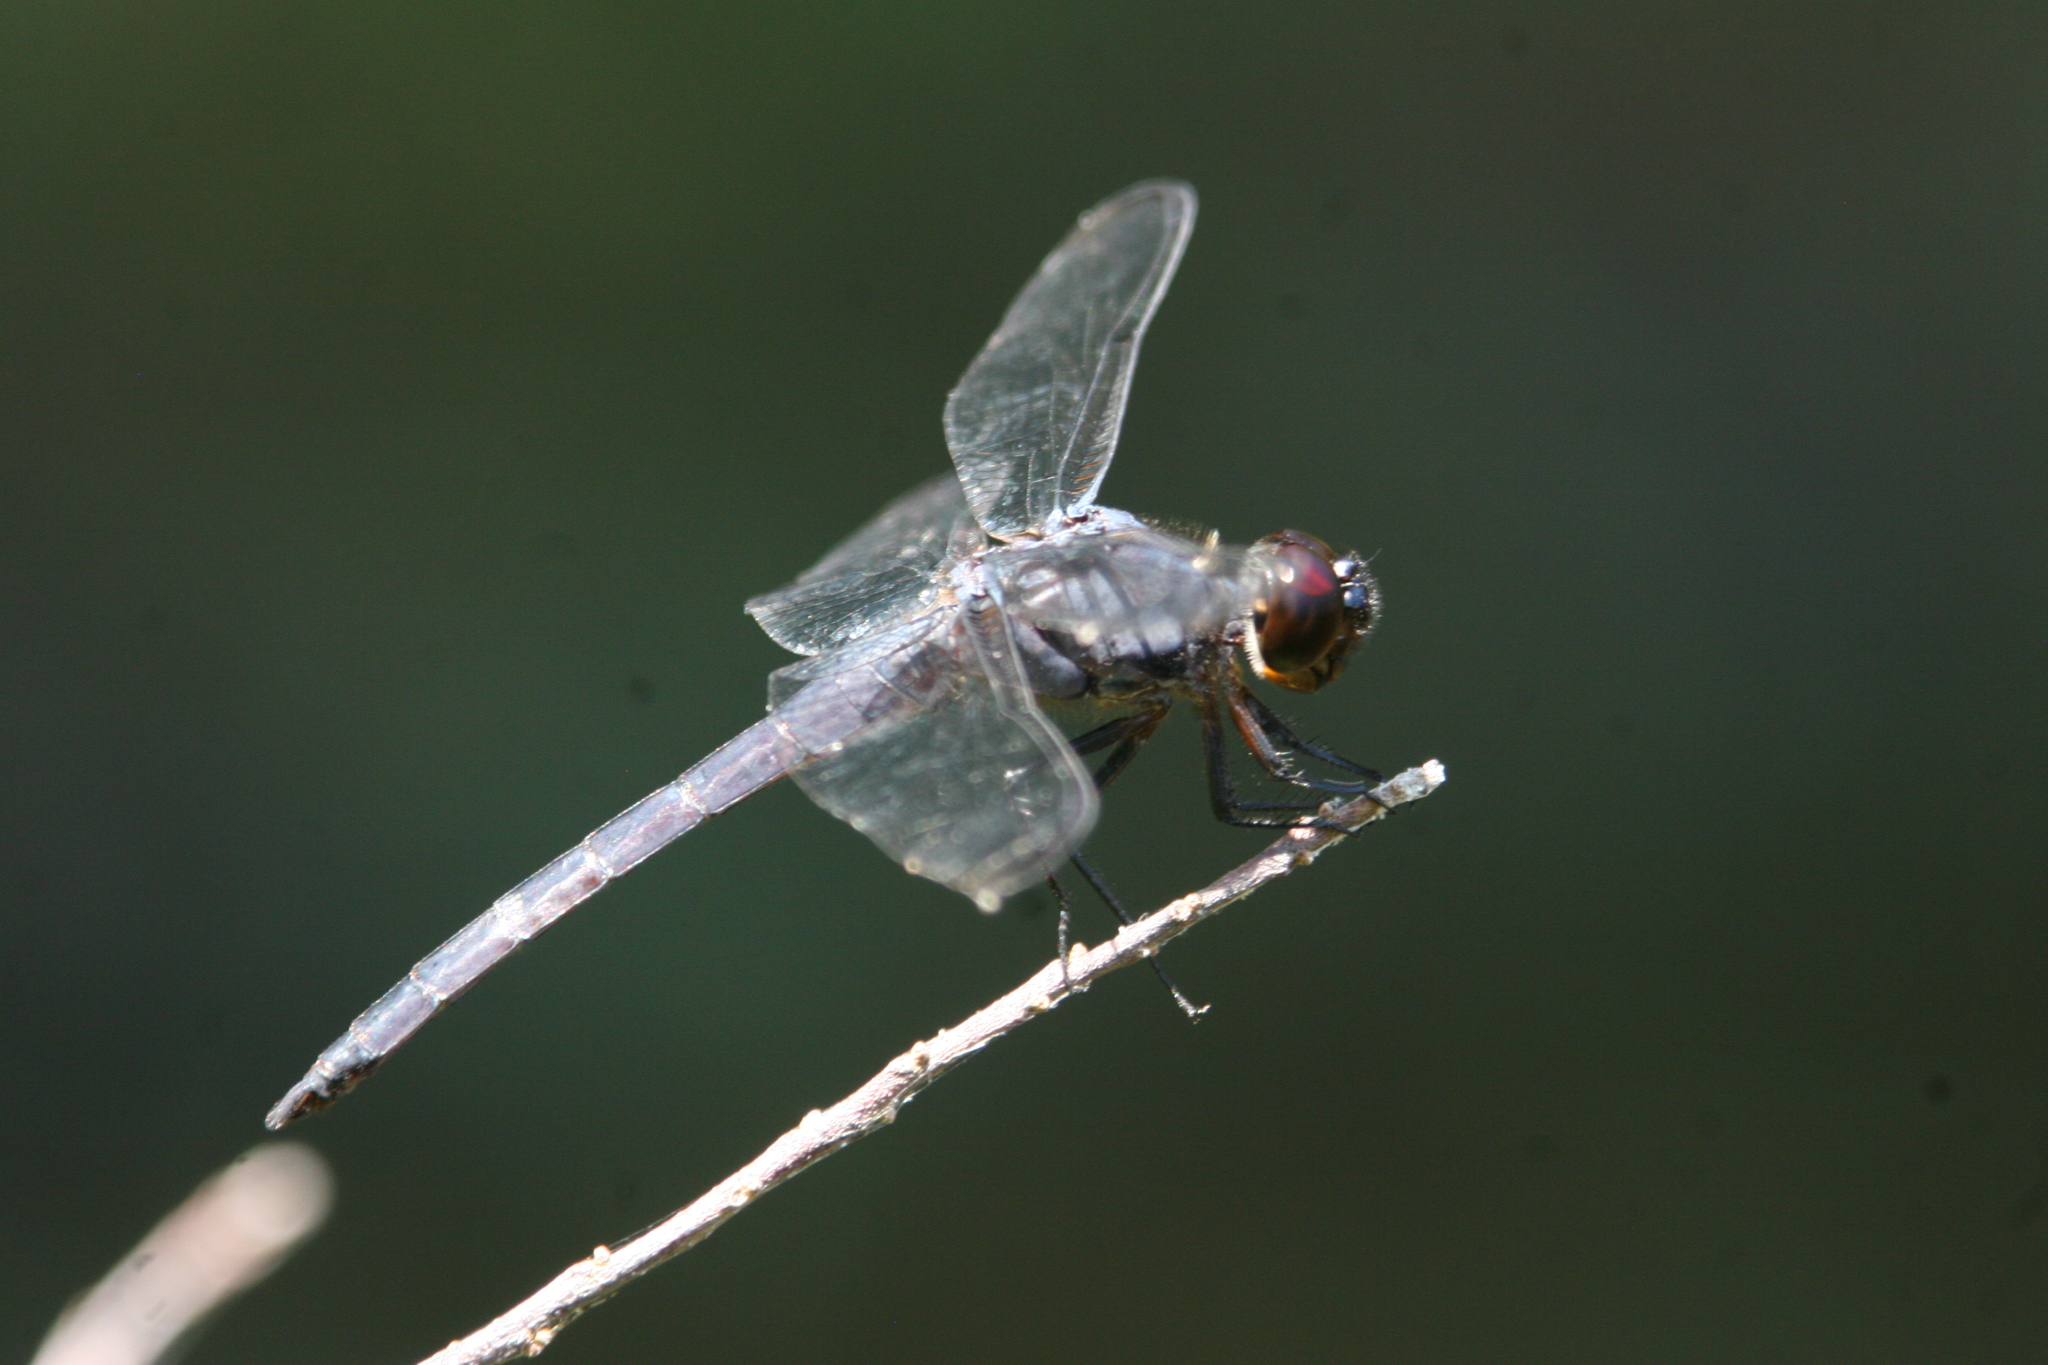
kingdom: Animalia
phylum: Arthropoda
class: Insecta
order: Odonata
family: Libellulidae
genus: Libellula
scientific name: Libellula incesta
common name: Slaty skimmer
